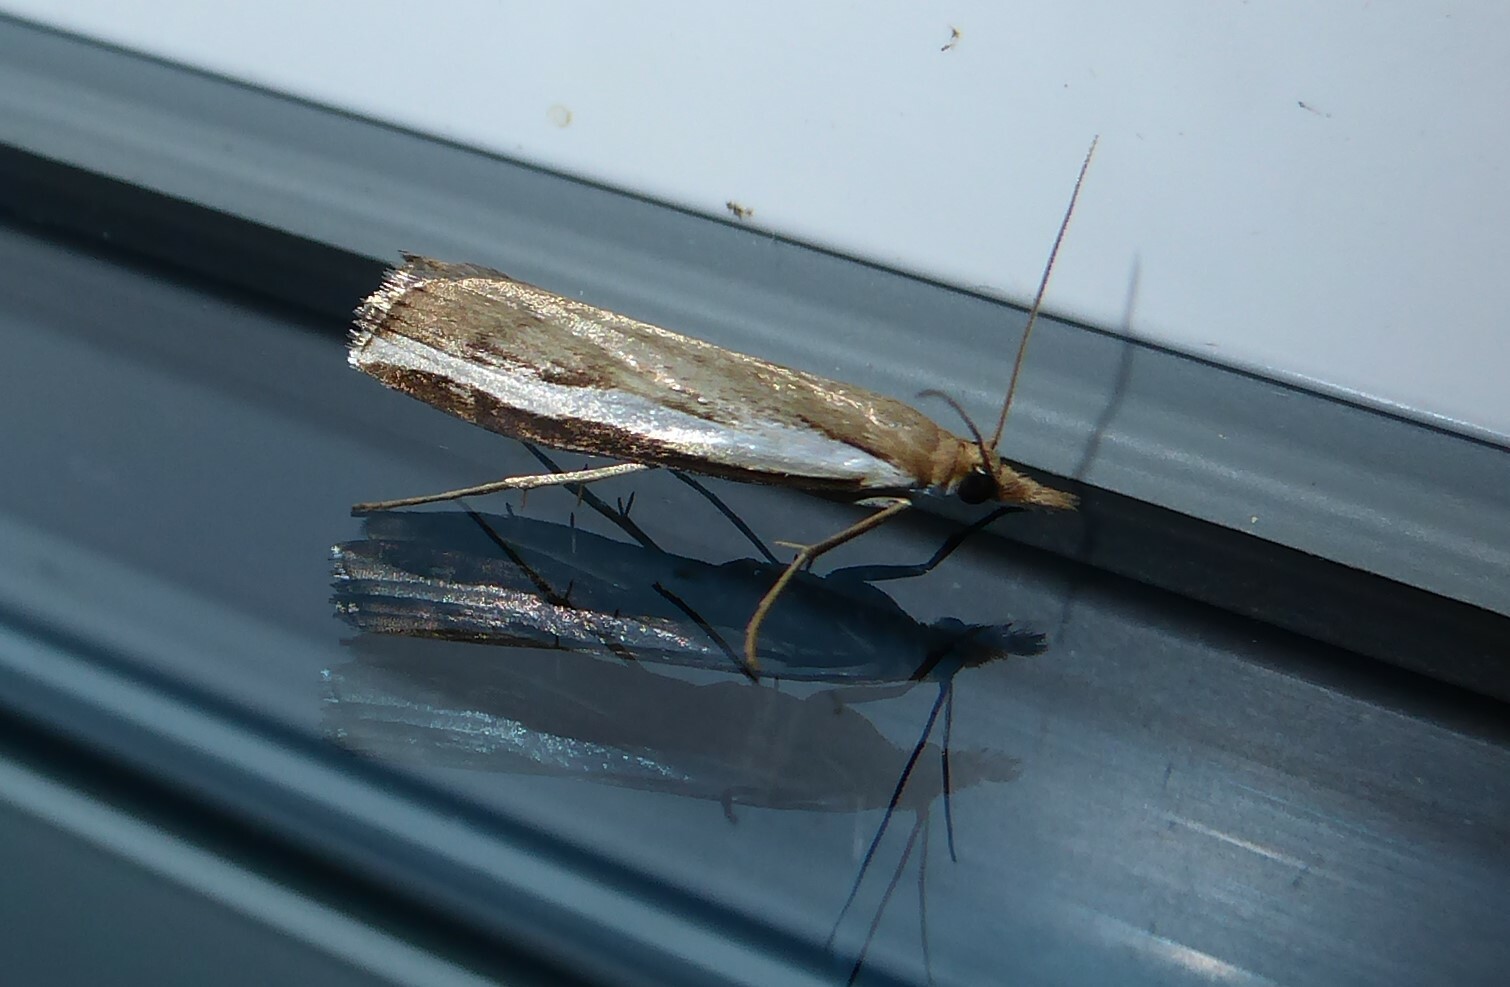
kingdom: Animalia
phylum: Arthropoda
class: Insecta
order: Lepidoptera
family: Crambidae
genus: Orocrambus
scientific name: Orocrambus flexuosellus
